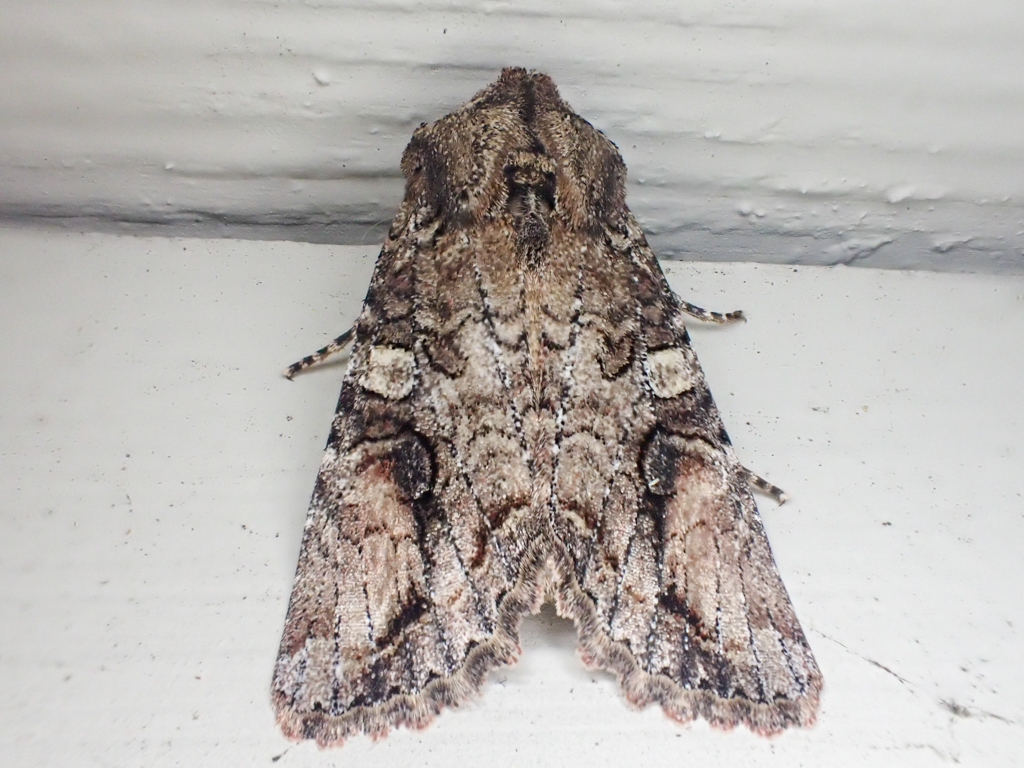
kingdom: Animalia
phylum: Arthropoda
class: Insecta
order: Lepidoptera
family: Noctuidae
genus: Egira
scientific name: Egira perlubens
